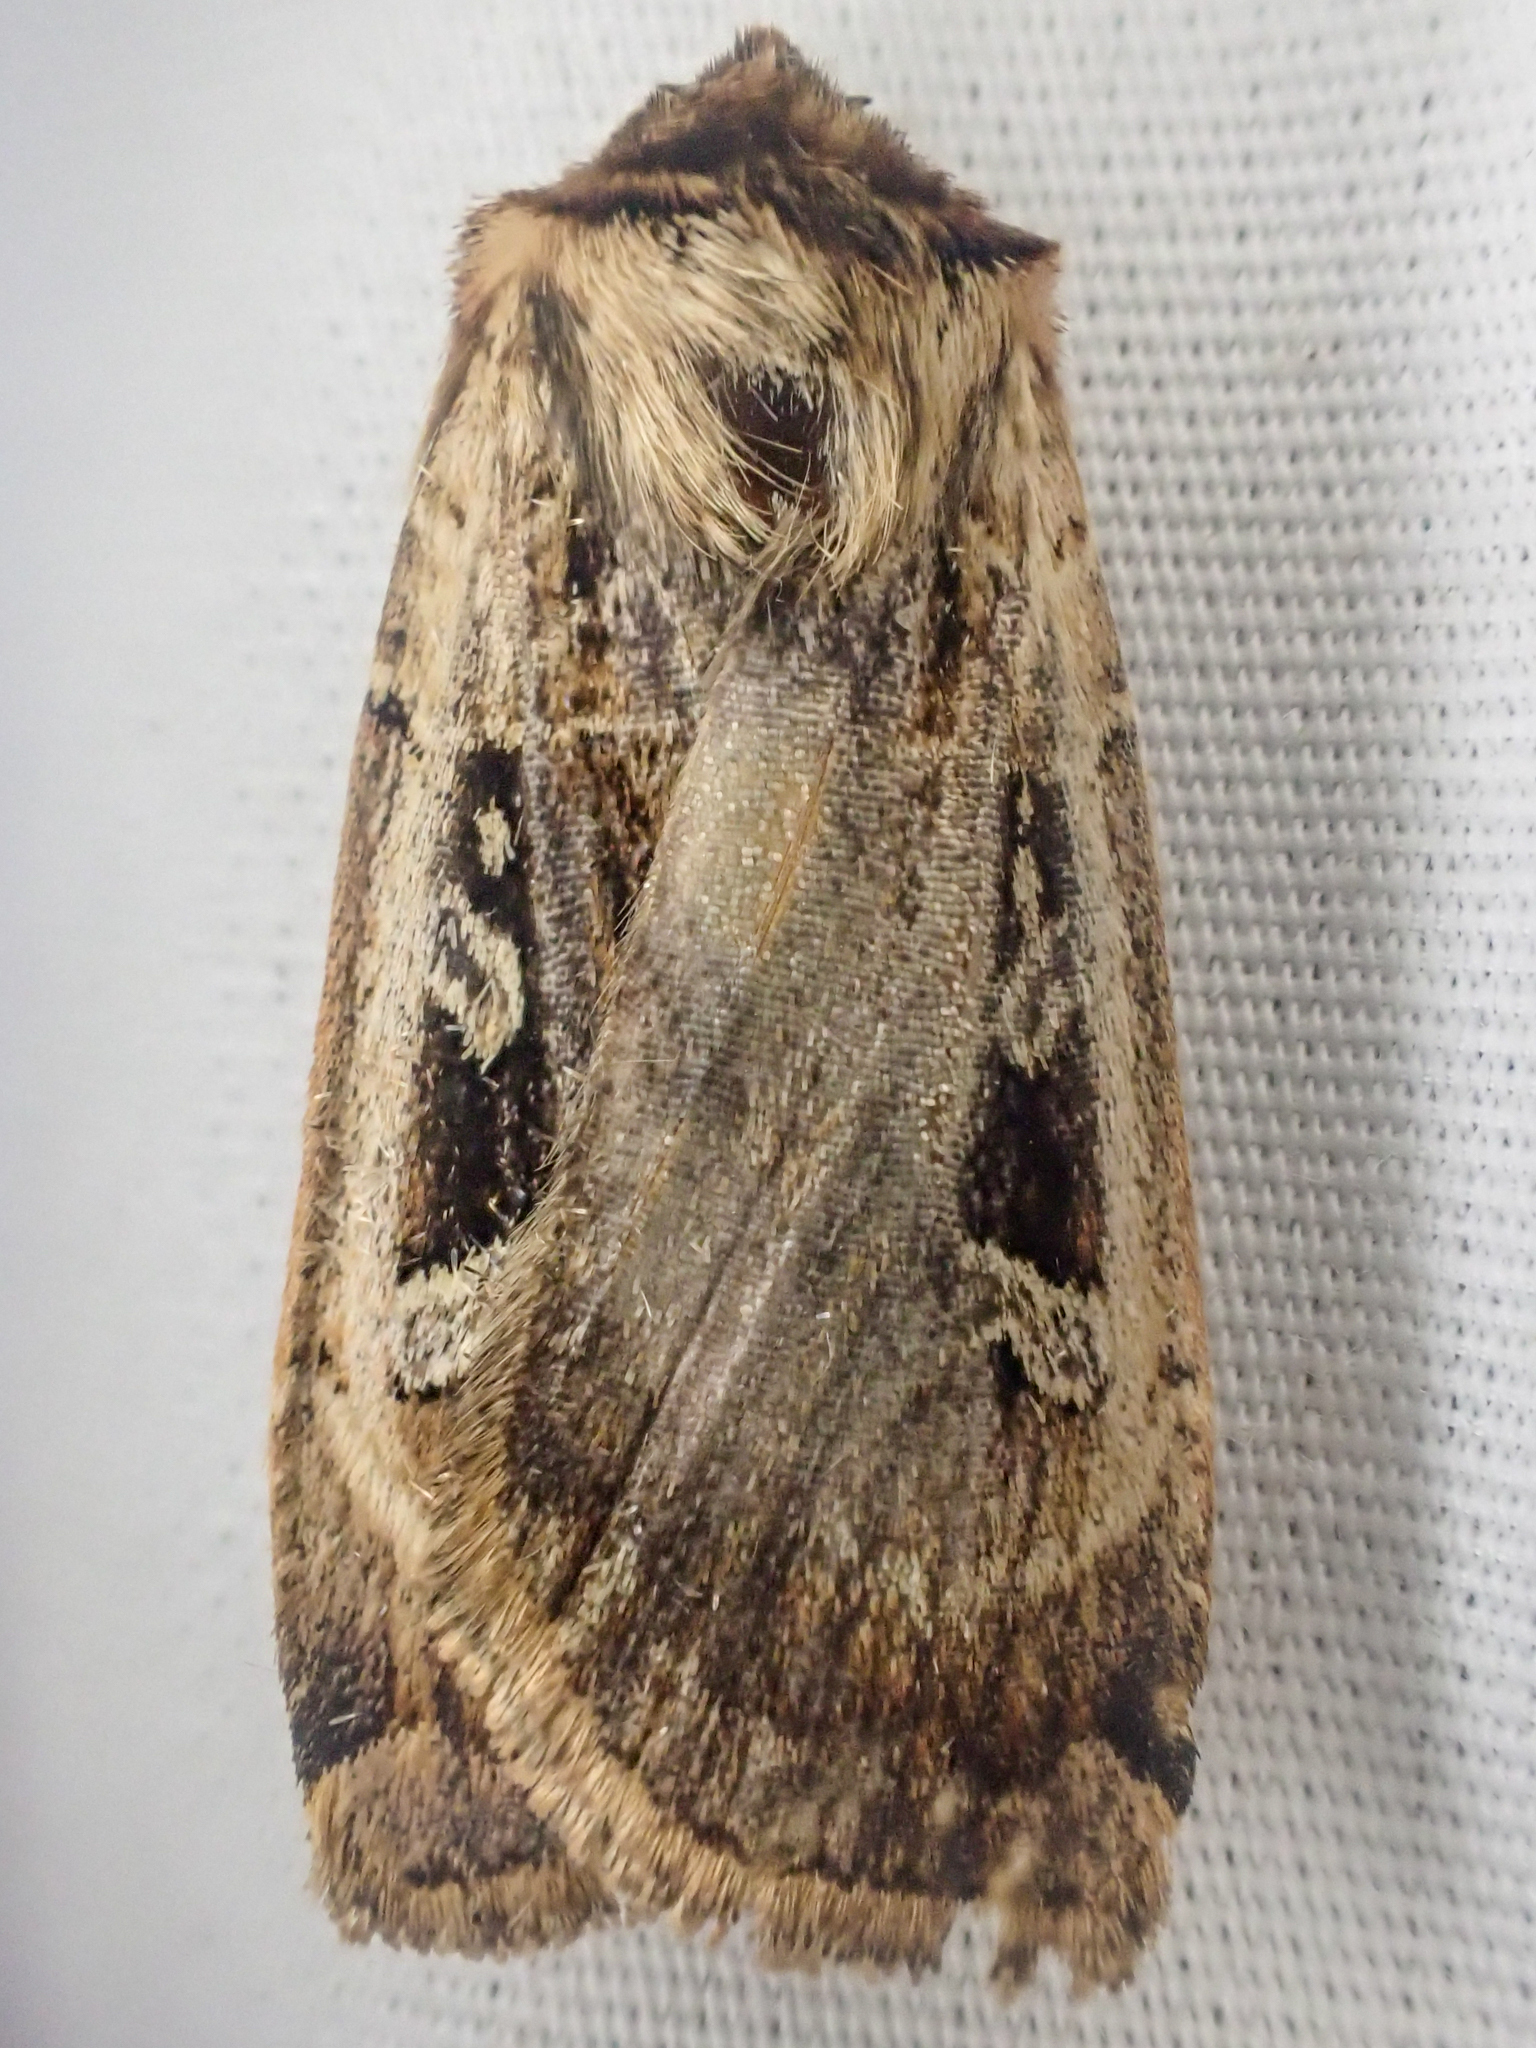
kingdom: Animalia
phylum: Arthropoda
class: Insecta
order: Lepidoptera
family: Noctuidae
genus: Pseudohermonassa
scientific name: Pseudohermonassa flavotincta
